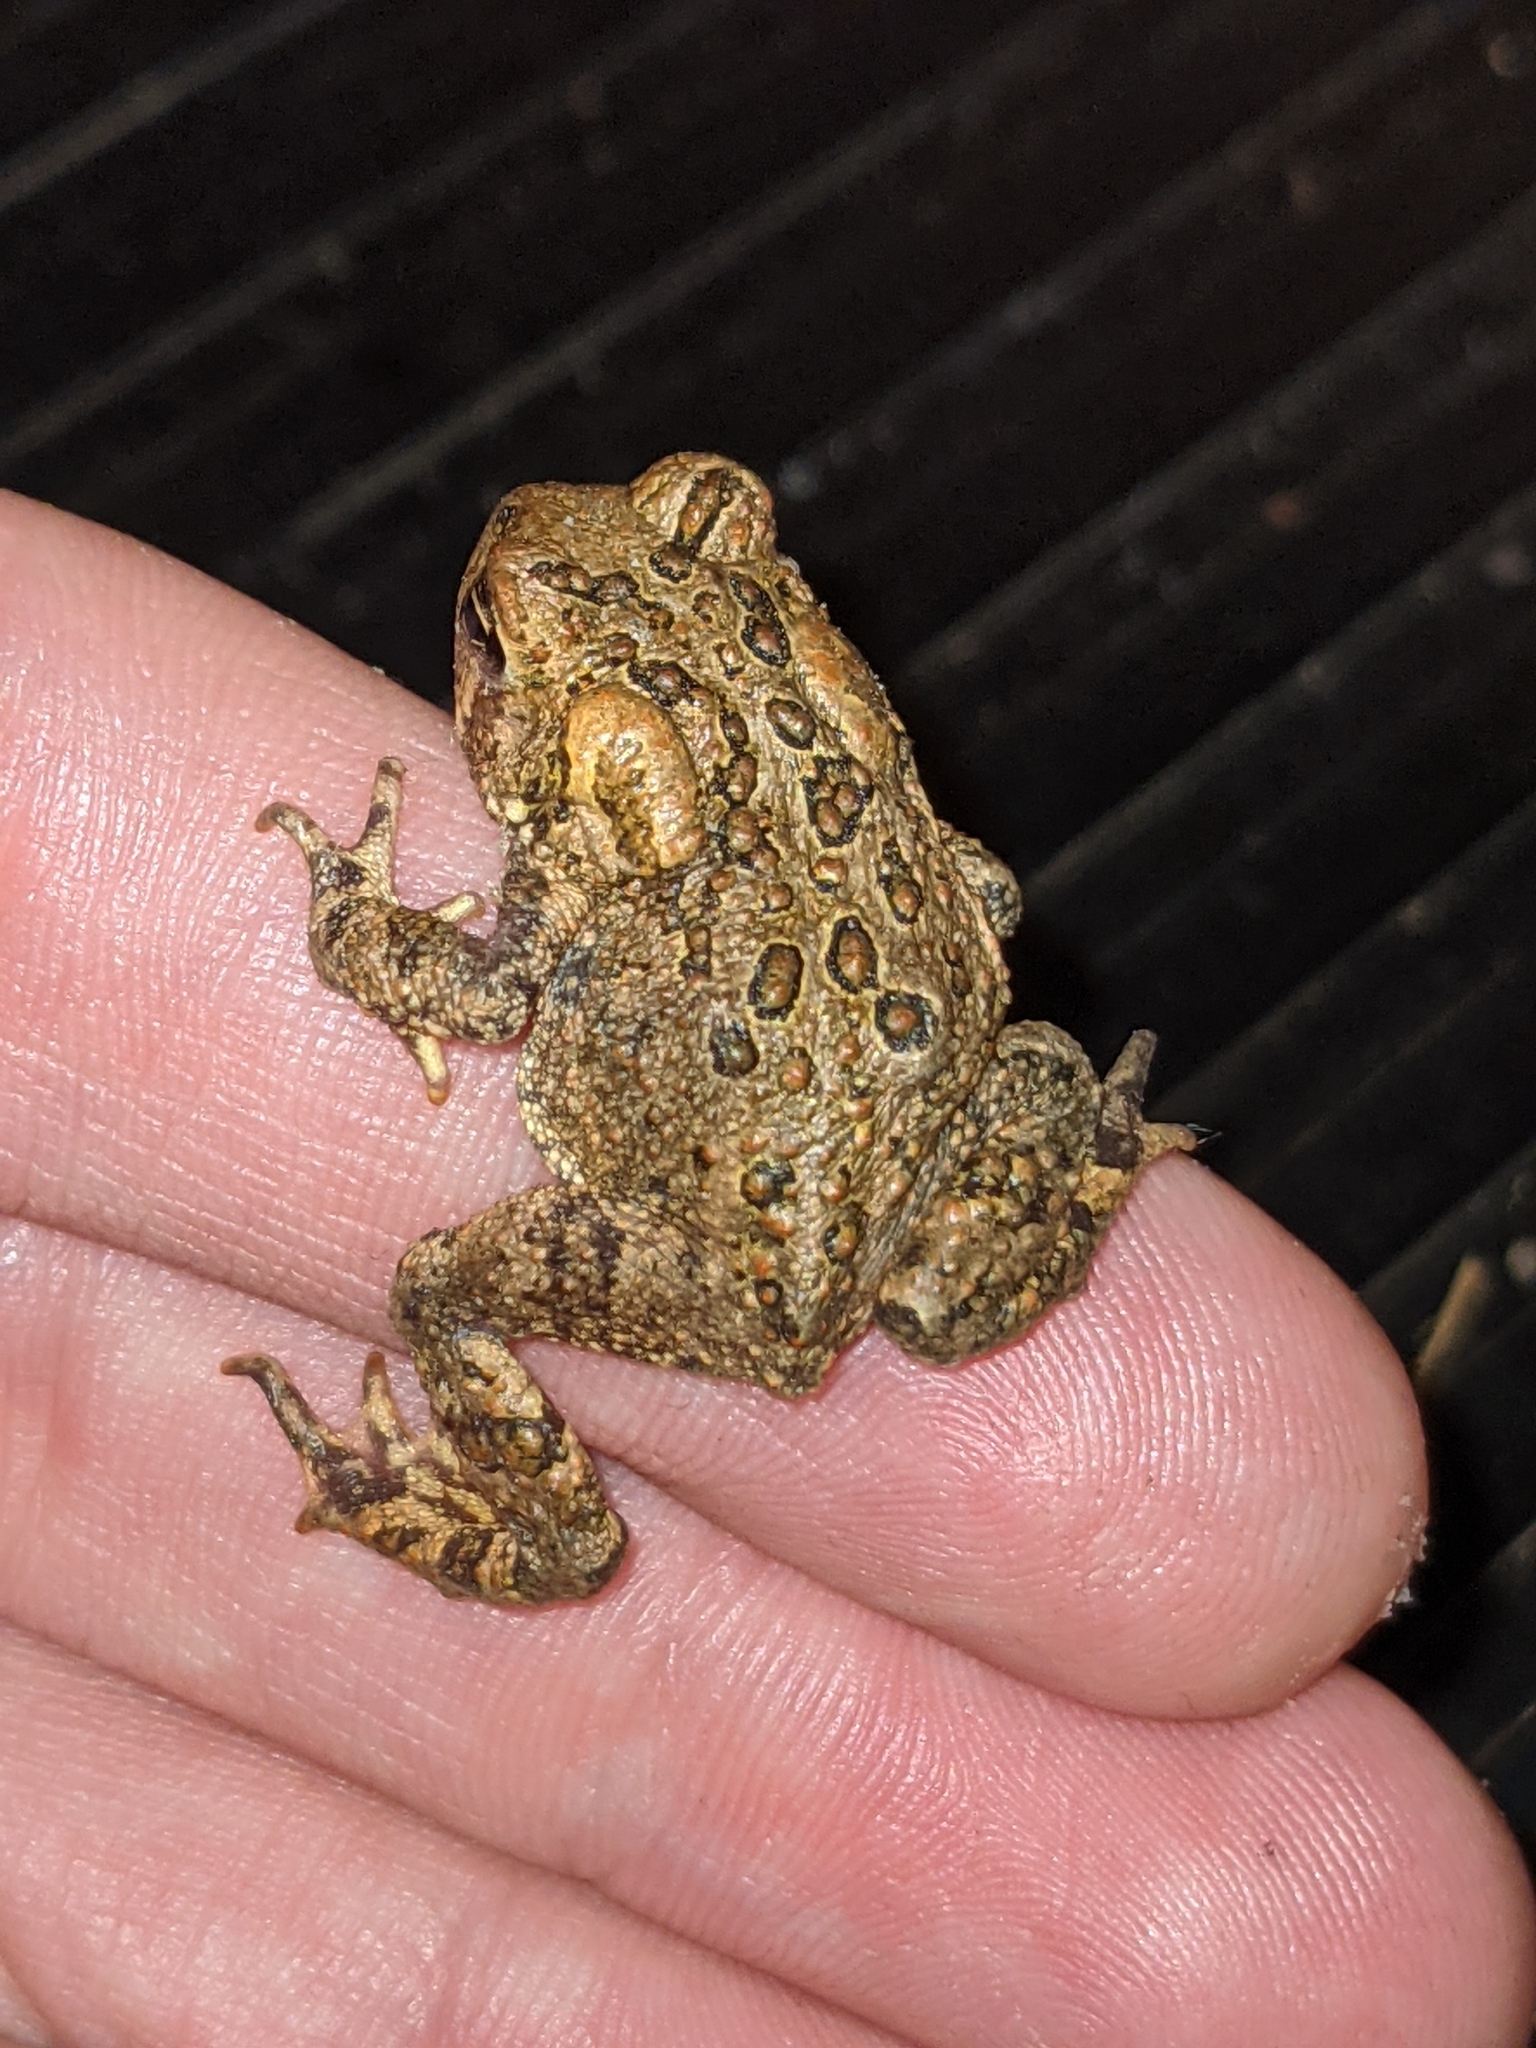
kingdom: Animalia
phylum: Chordata
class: Amphibia
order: Anura
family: Bufonidae
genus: Anaxyrus
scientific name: Anaxyrus americanus
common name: American toad
